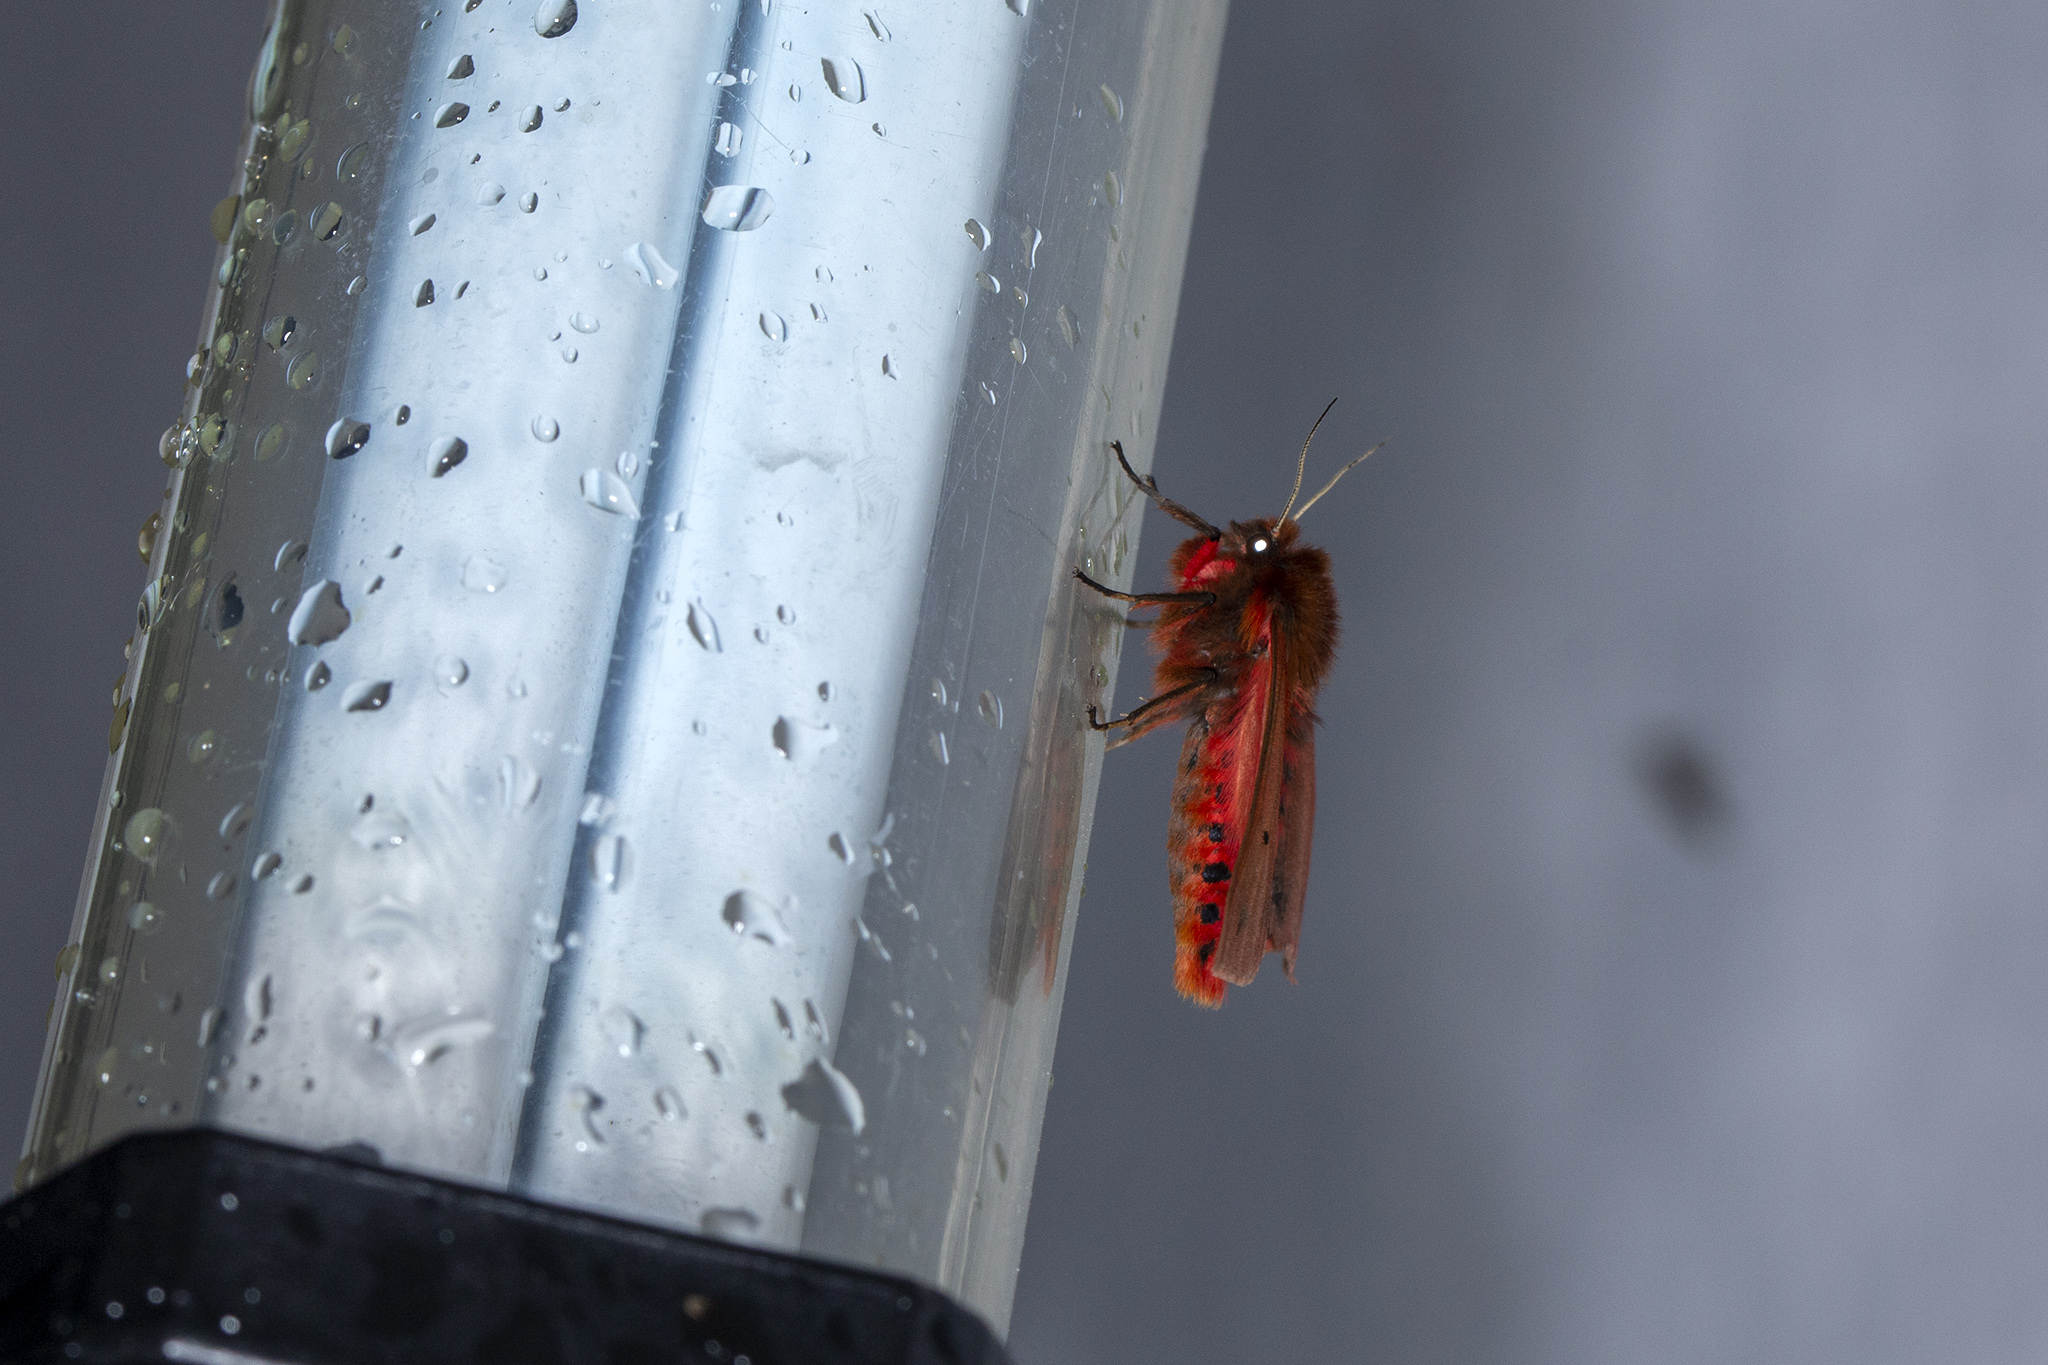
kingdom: Animalia
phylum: Arthropoda
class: Insecta
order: Lepidoptera
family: Erebidae
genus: Phragmatobia
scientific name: Phragmatobia fuliginosa
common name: Ruby tiger
